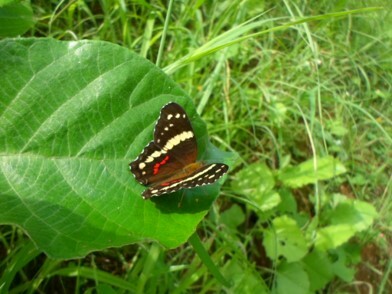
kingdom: Animalia
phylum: Arthropoda
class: Insecta
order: Lepidoptera
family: Nymphalidae
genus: Anartia
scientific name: Anartia fatima
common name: Banded peacock
